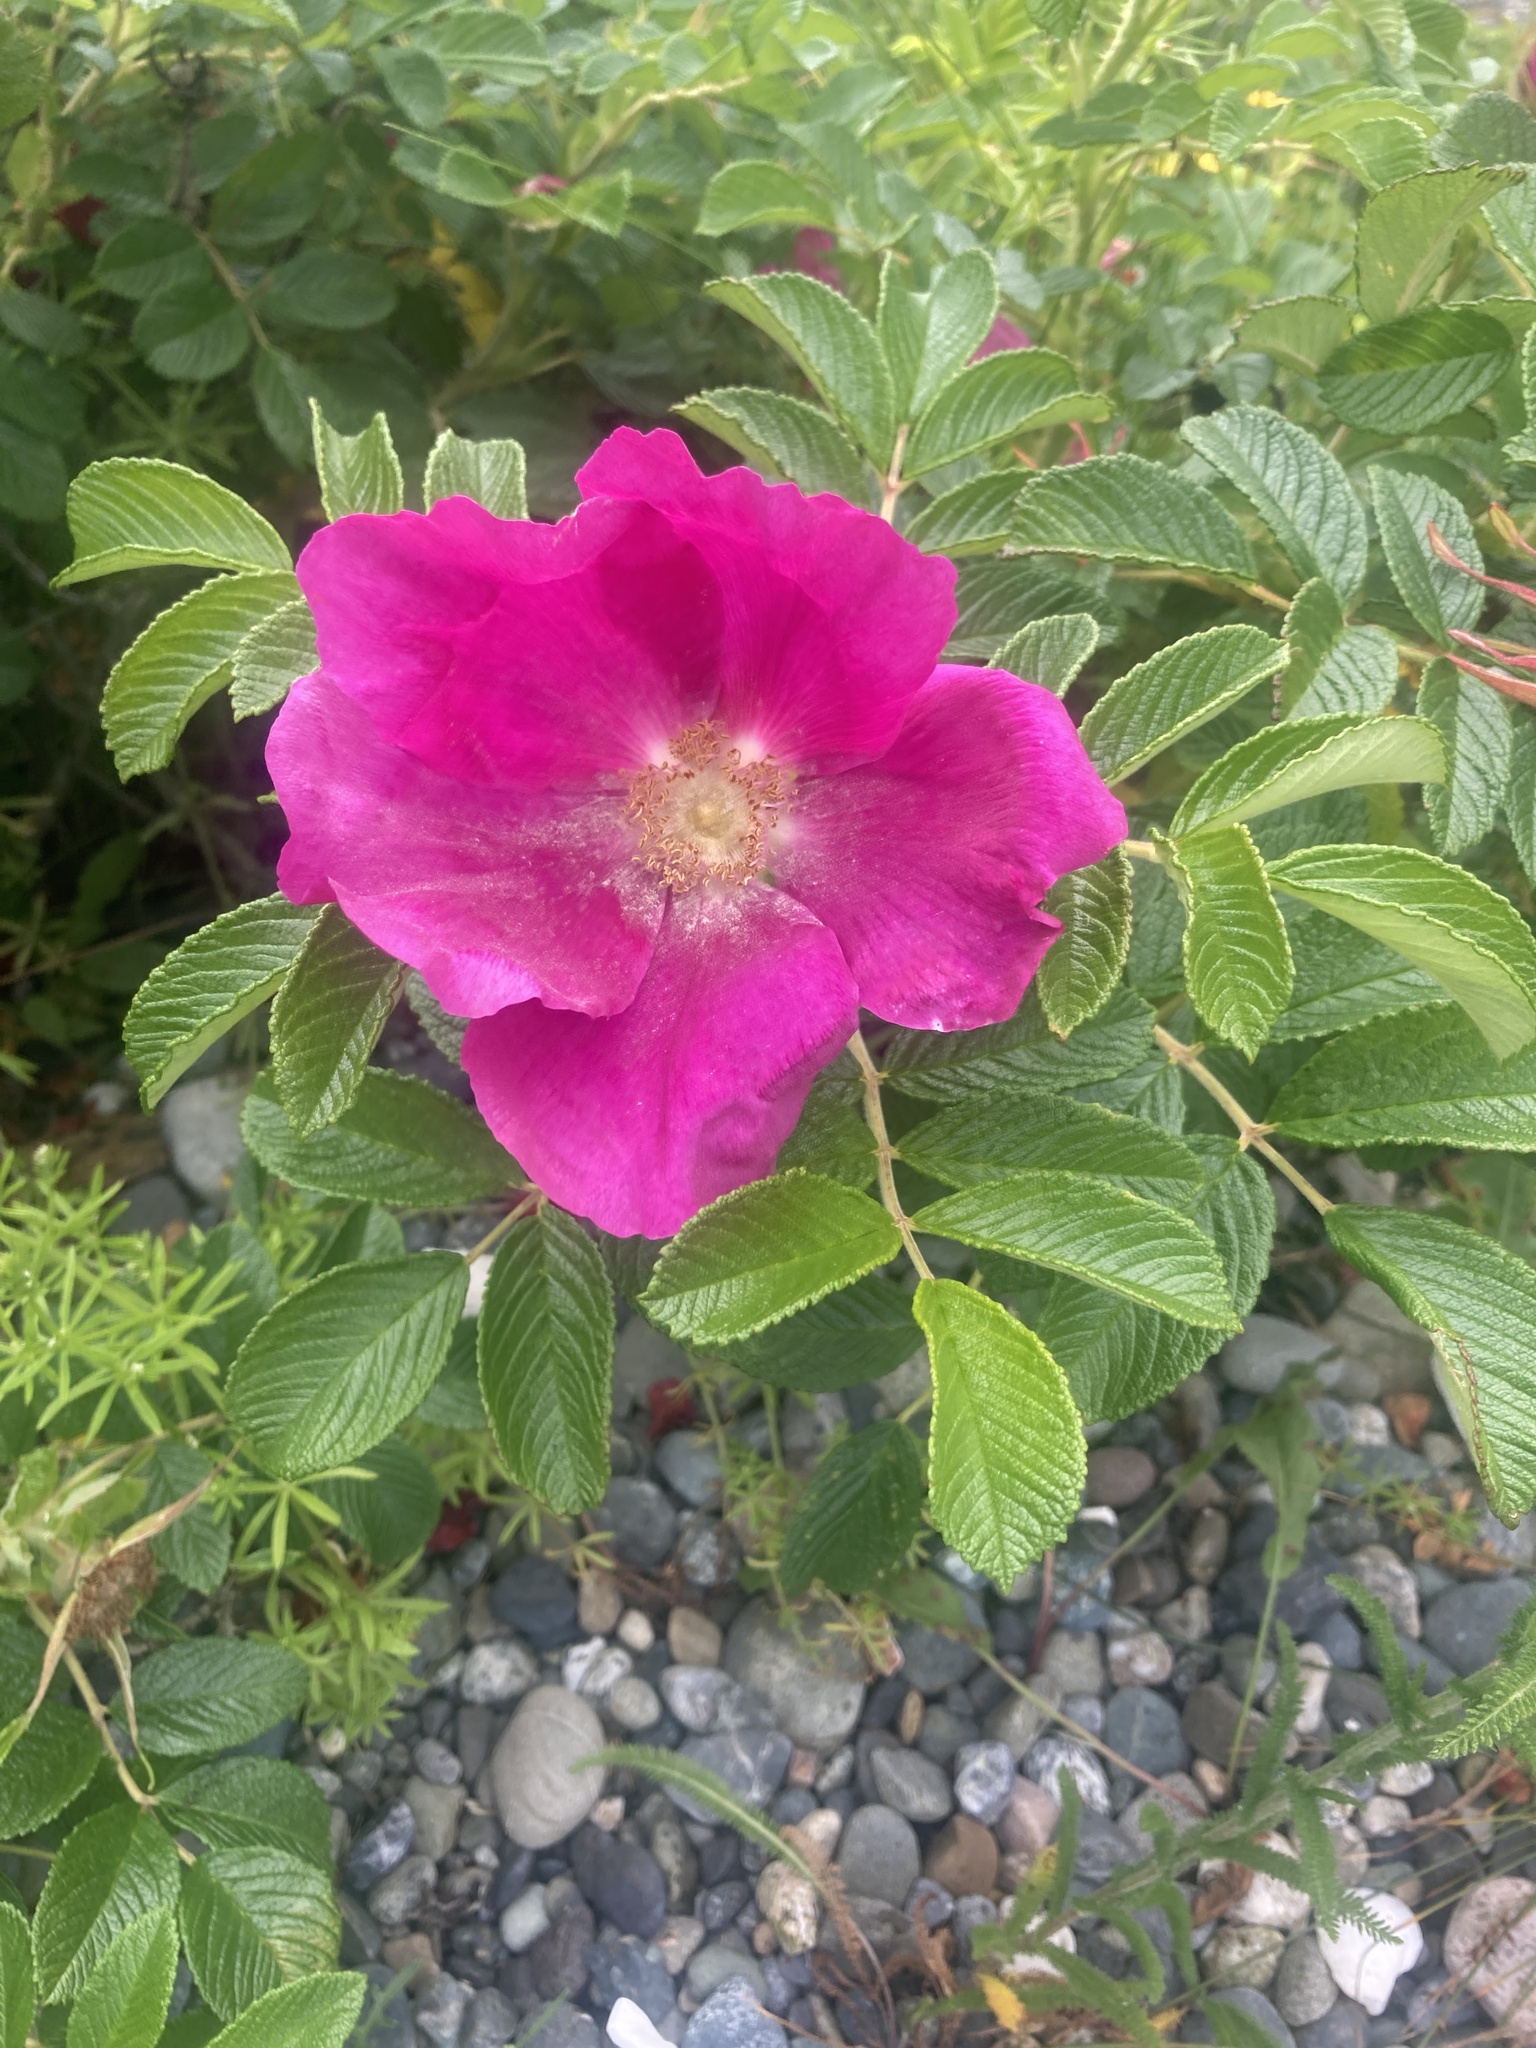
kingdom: Plantae
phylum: Tracheophyta
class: Magnoliopsida
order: Rosales
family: Rosaceae
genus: Rosa
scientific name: Rosa rugosa
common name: Japanese rose
